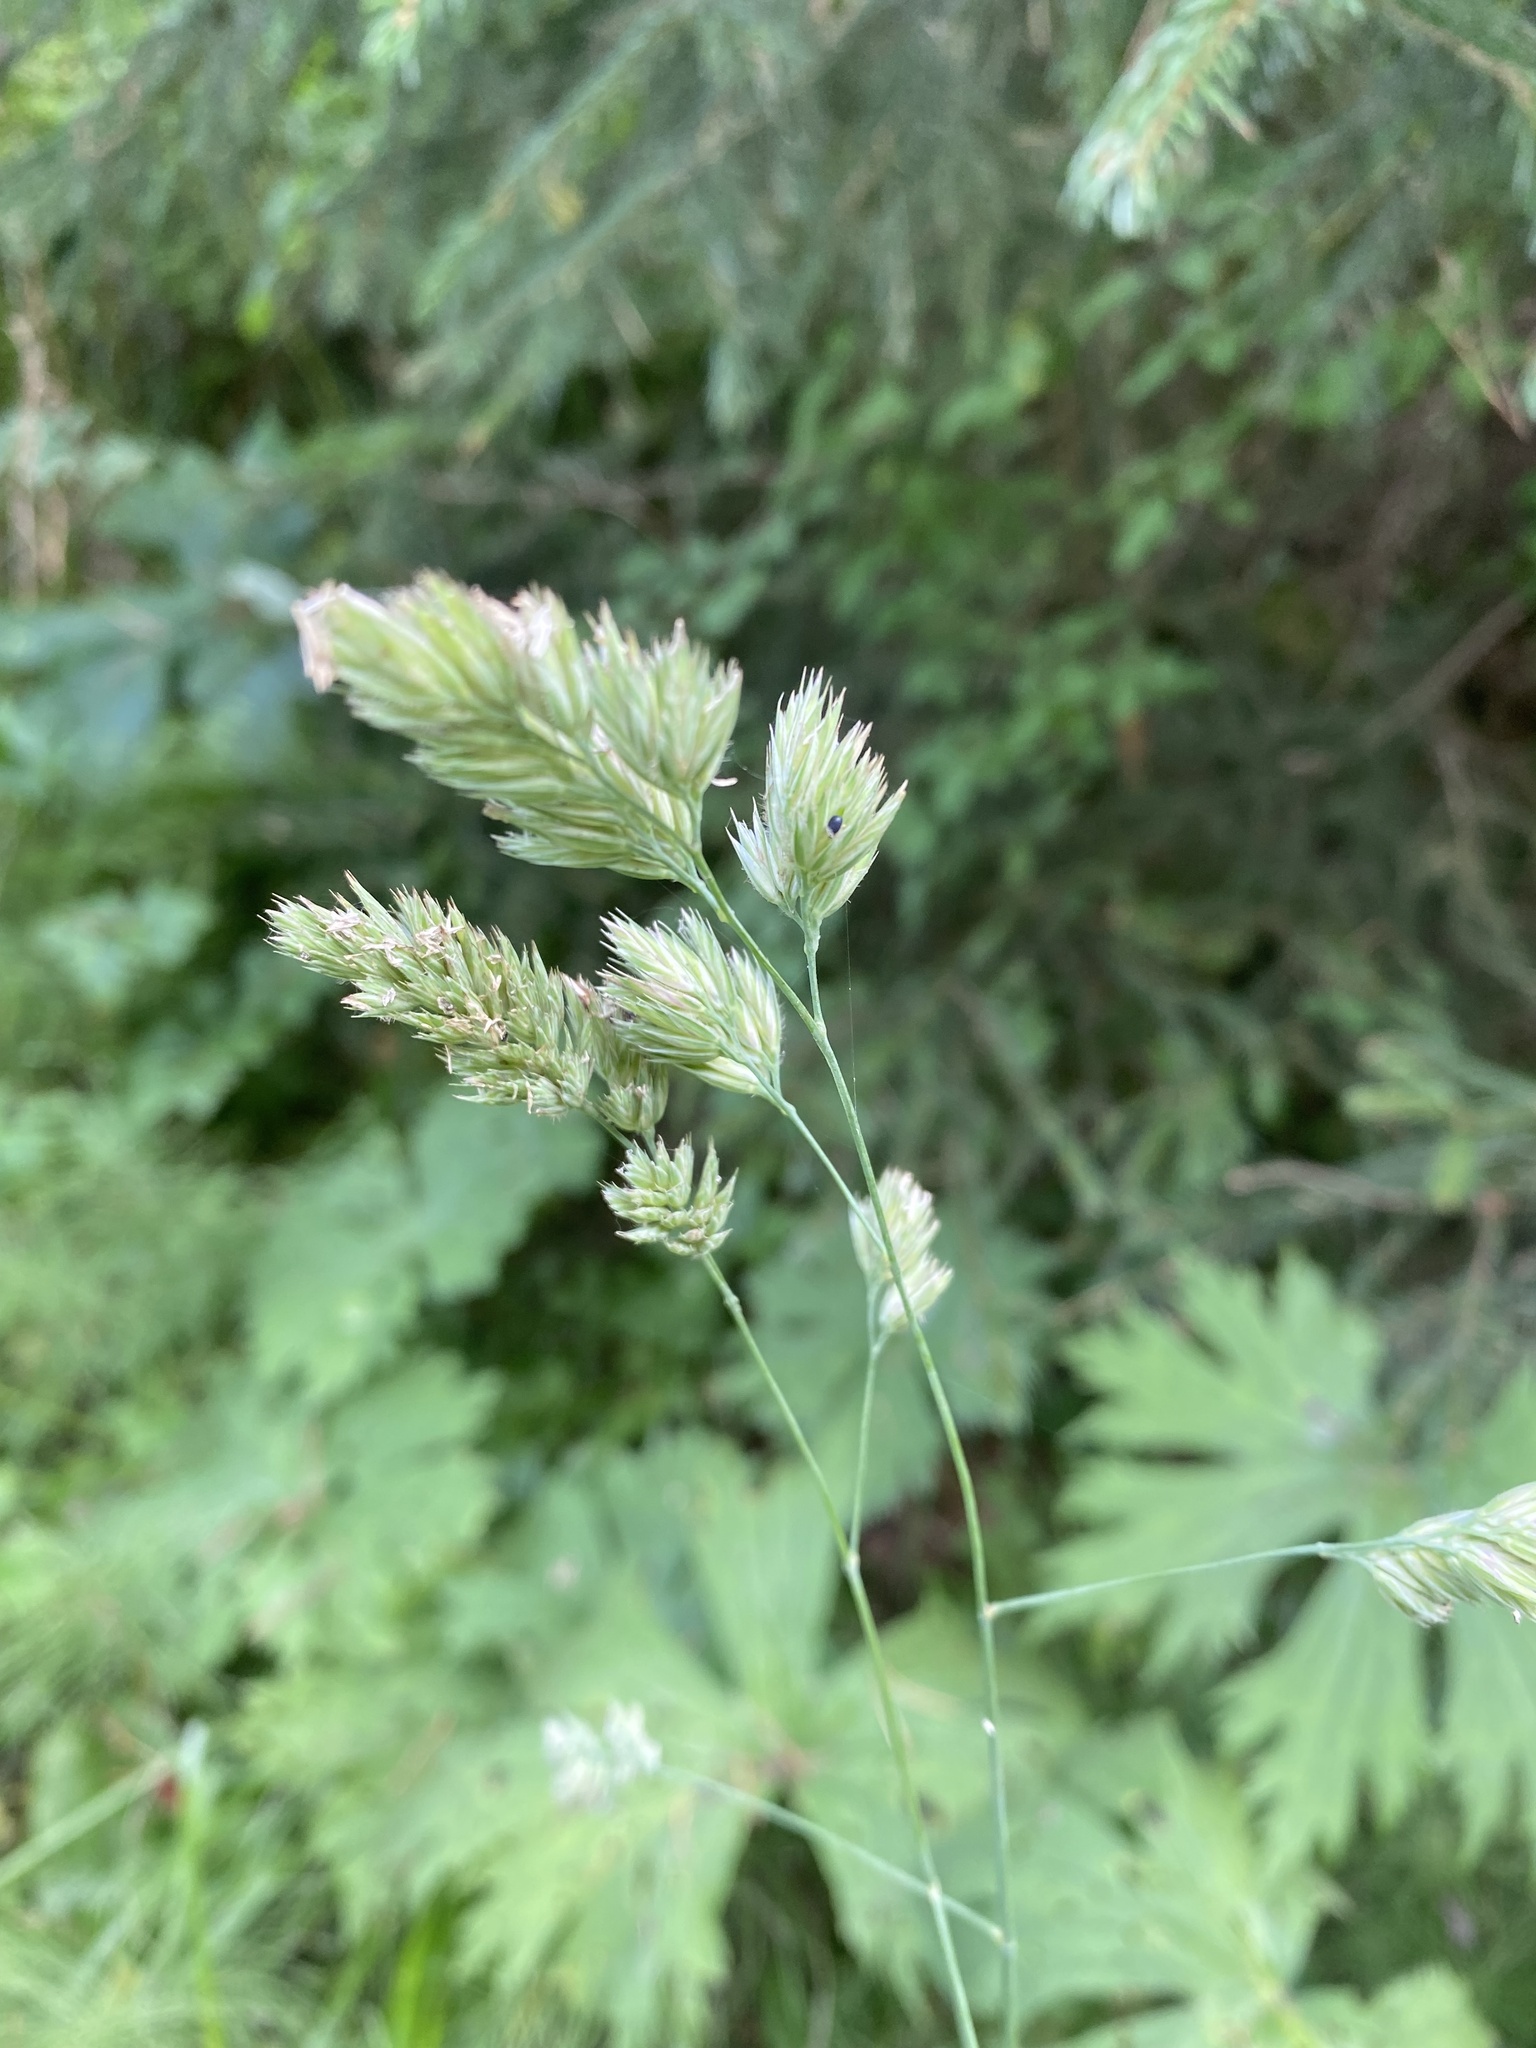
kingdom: Plantae
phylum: Tracheophyta
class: Liliopsida
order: Poales
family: Poaceae
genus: Dactylis
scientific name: Dactylis glomerata
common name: Orchardgrass
